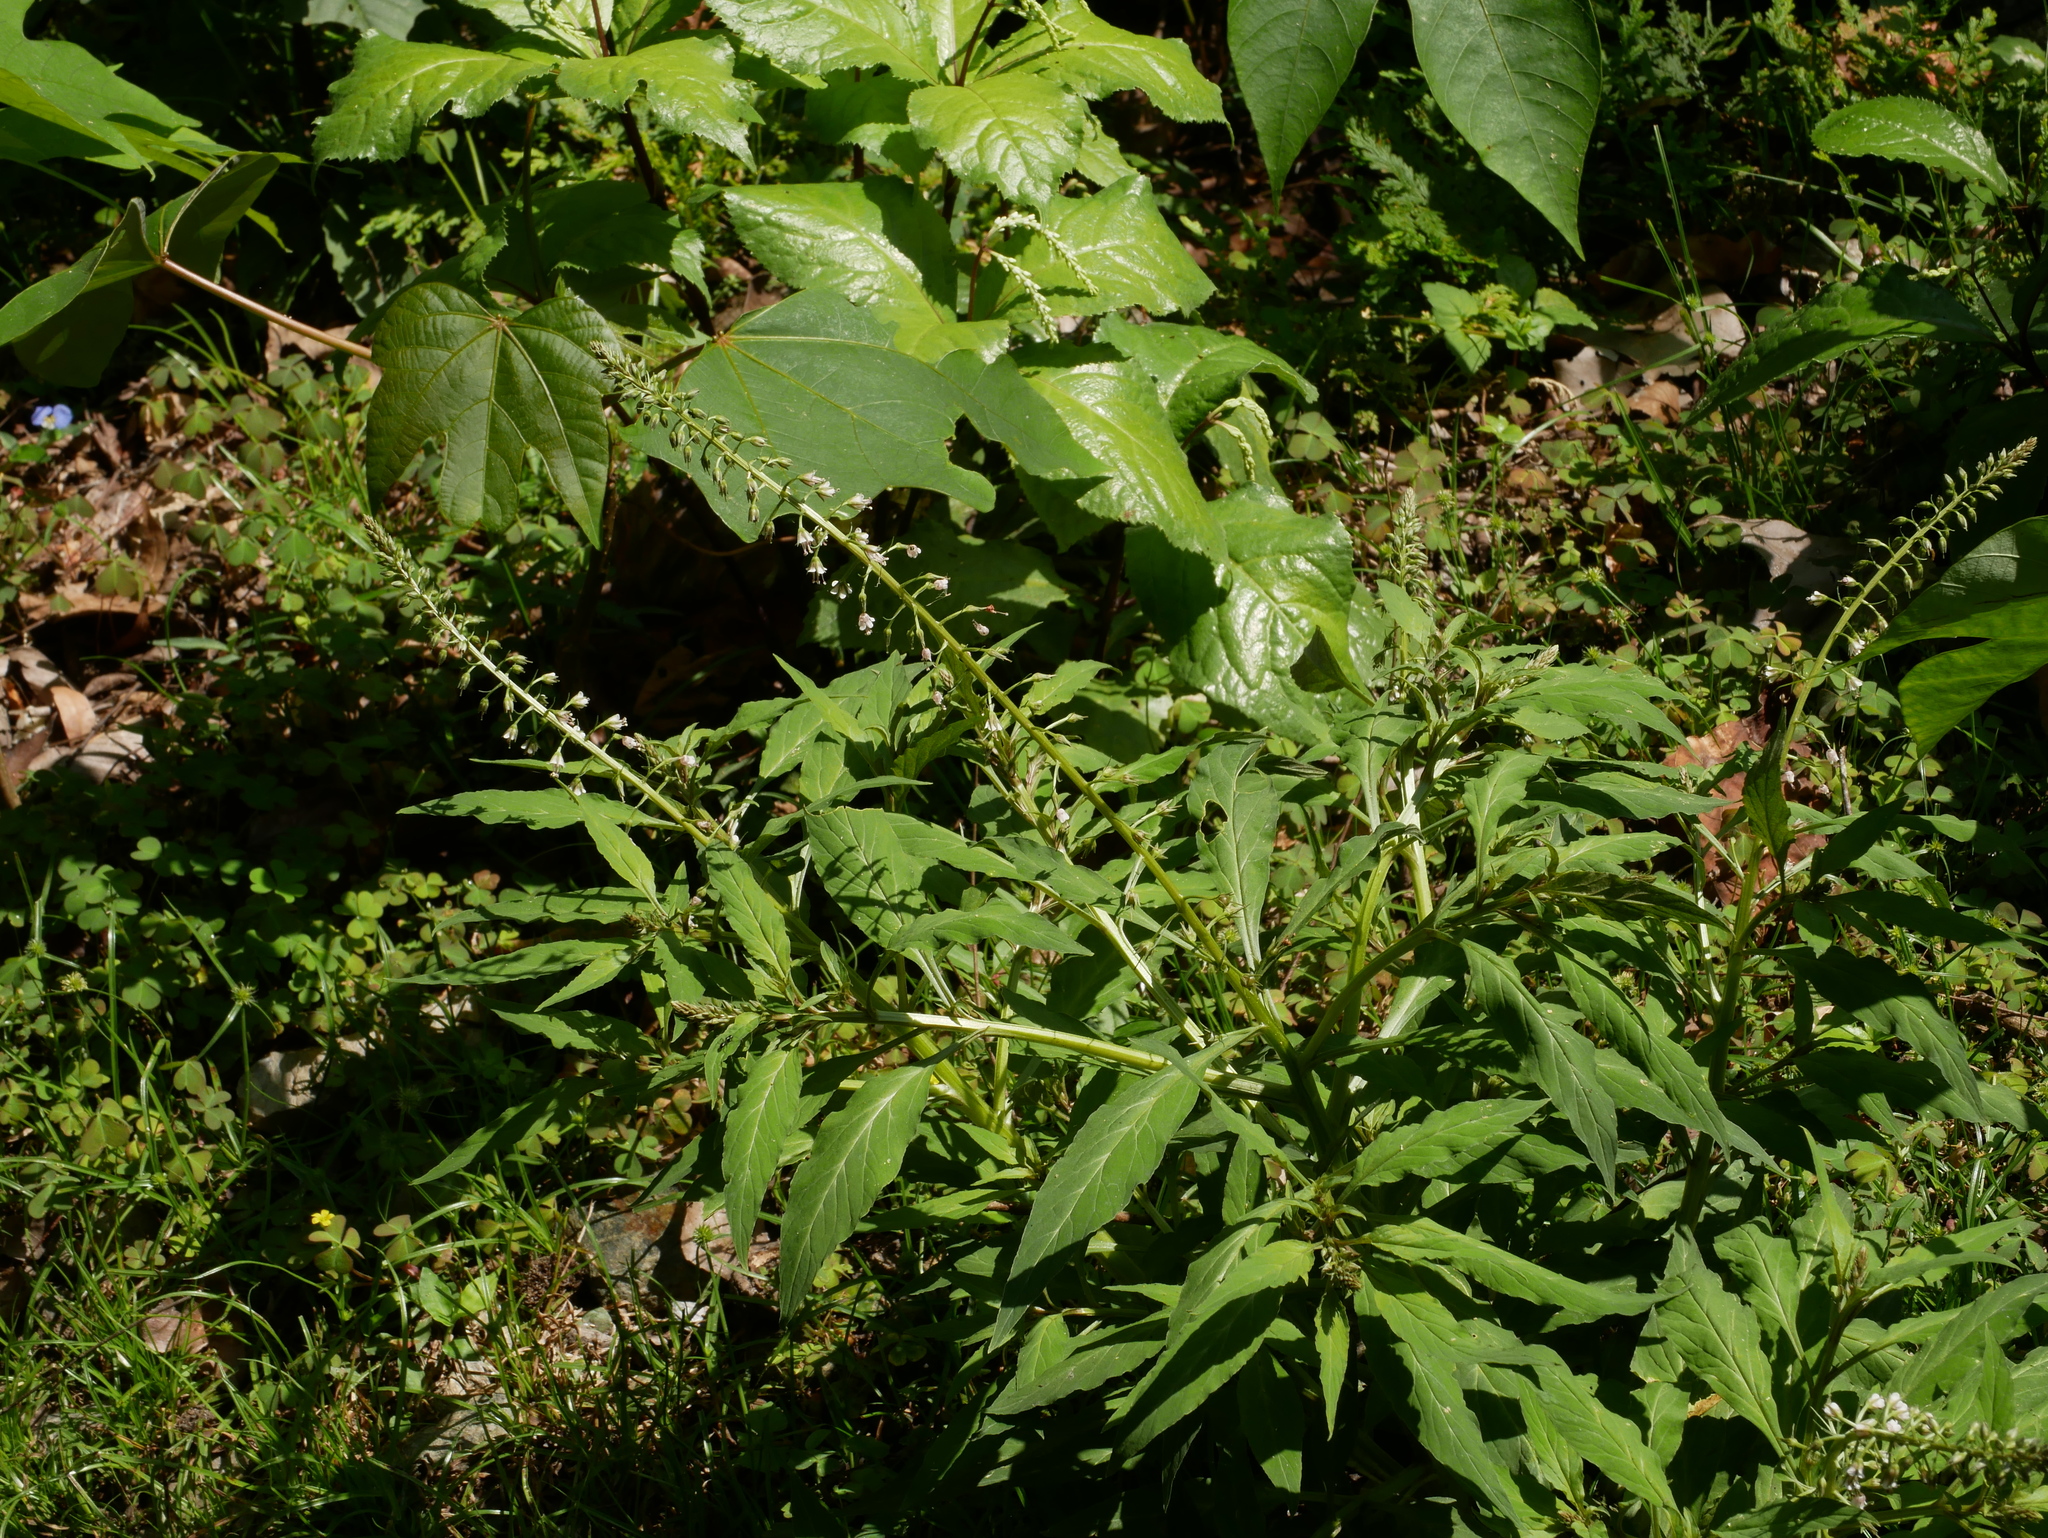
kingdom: Plantae
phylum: Tracheophyta
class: Magnoliopsida
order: Ericales
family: Primulaceae
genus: Lysimachia
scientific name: Lysimachia decurrens
